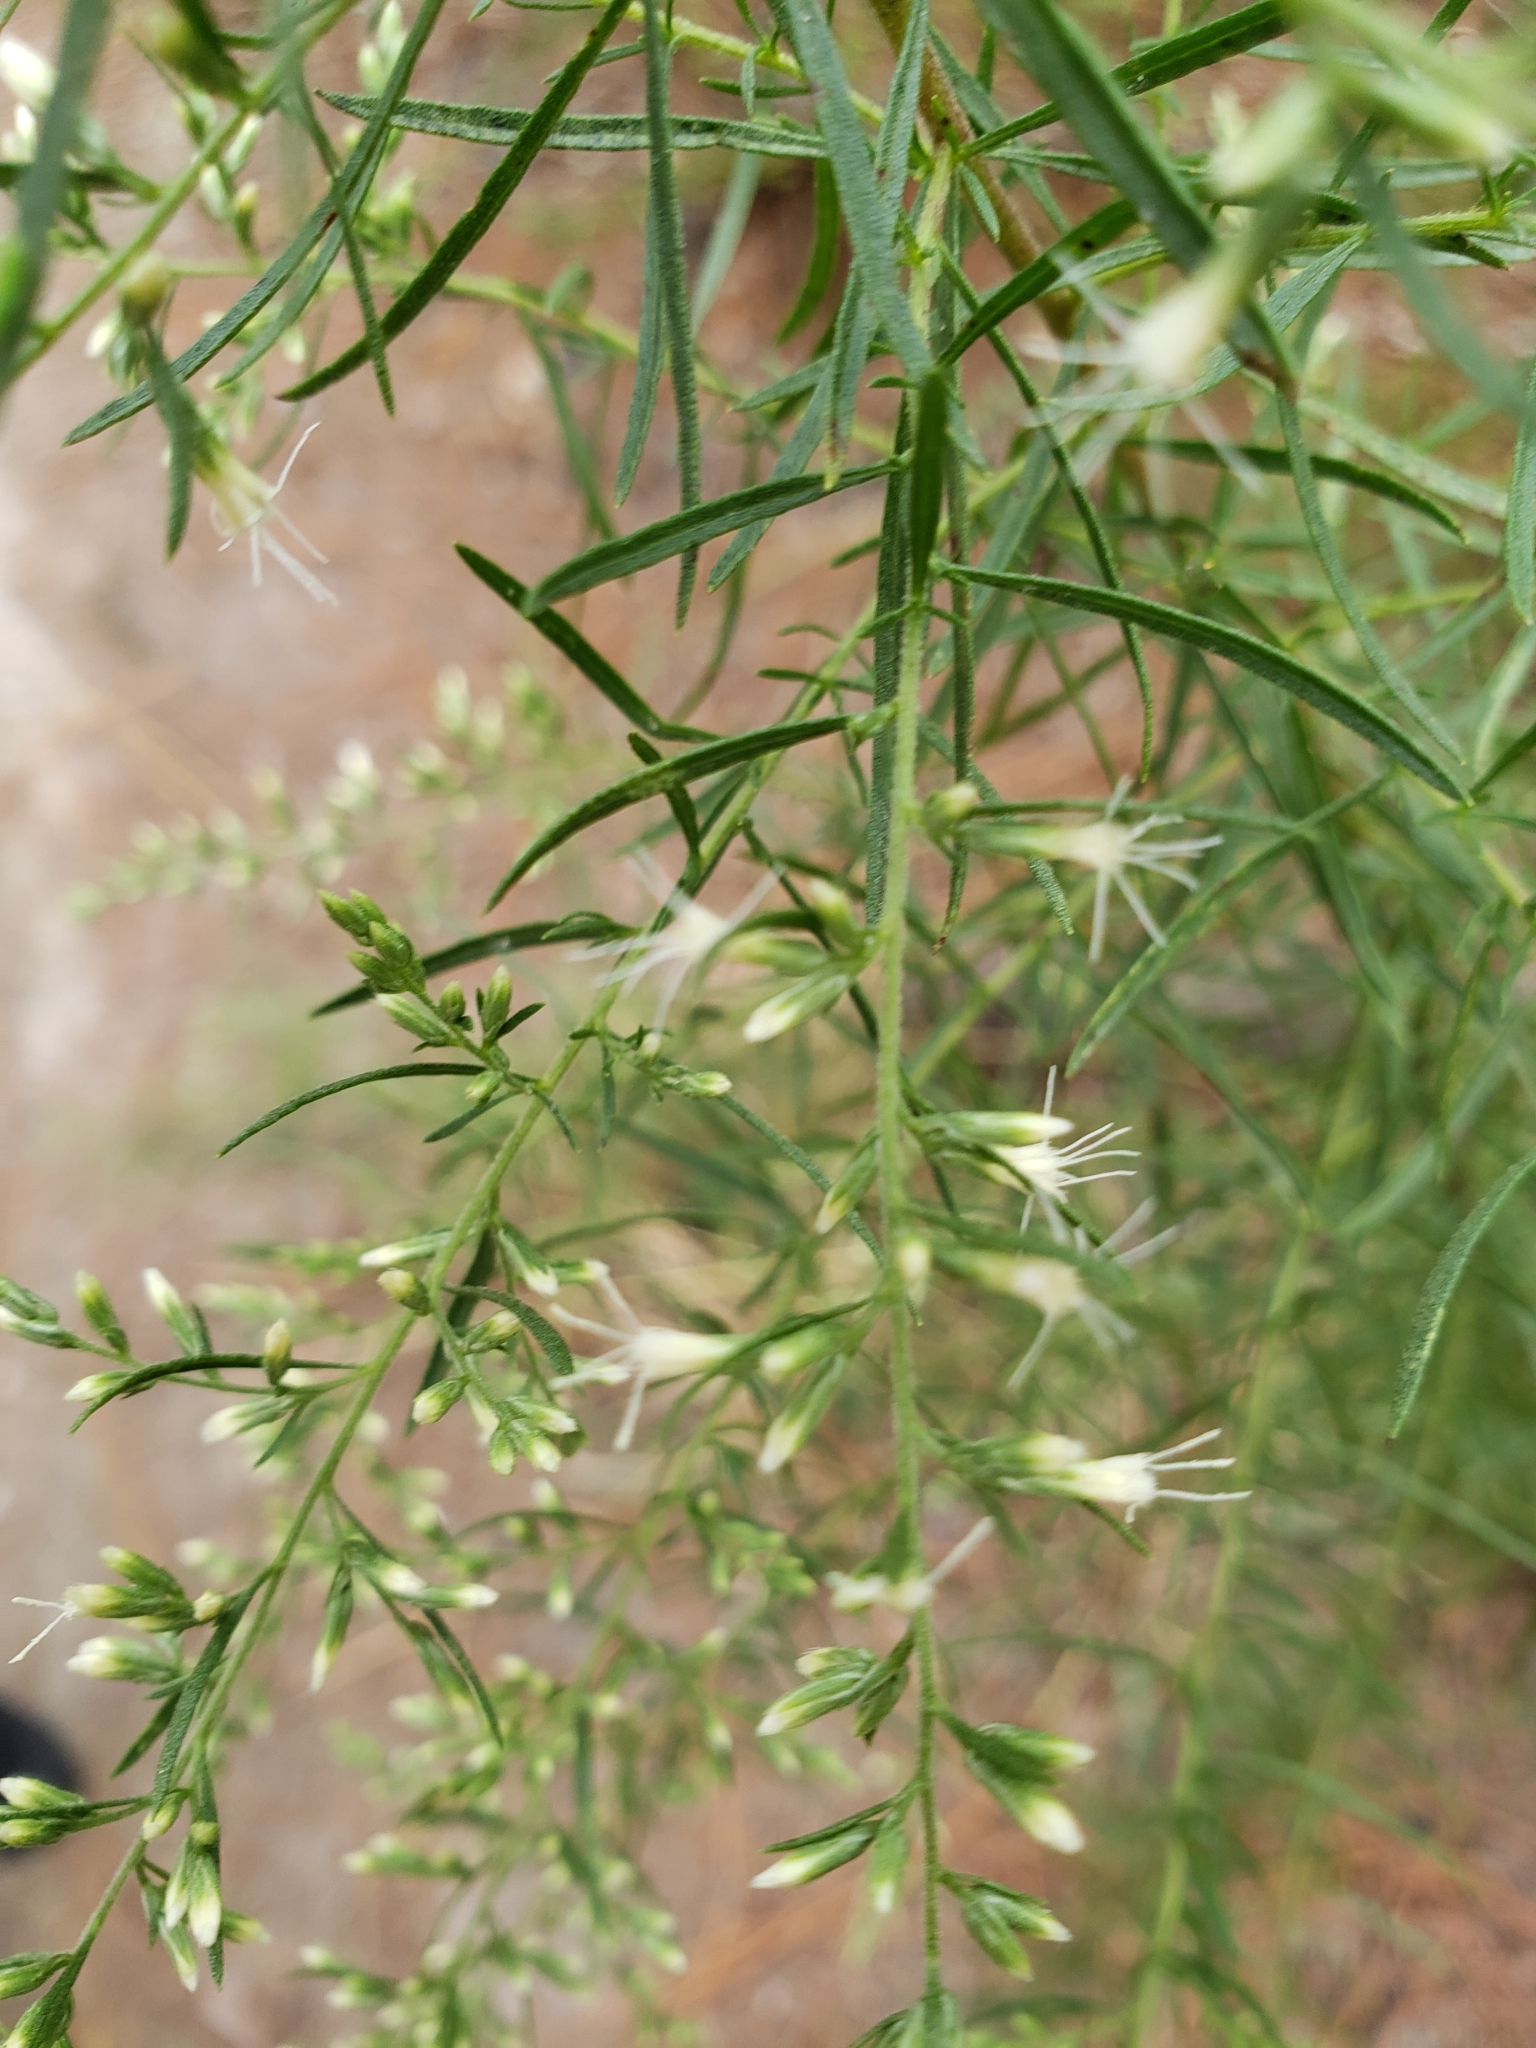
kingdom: Plantae
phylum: Tracheophyta
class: Magnoliopsida
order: Asterales
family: Asteraceae
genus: Eupatorium
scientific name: Eupatorium compositifolium
